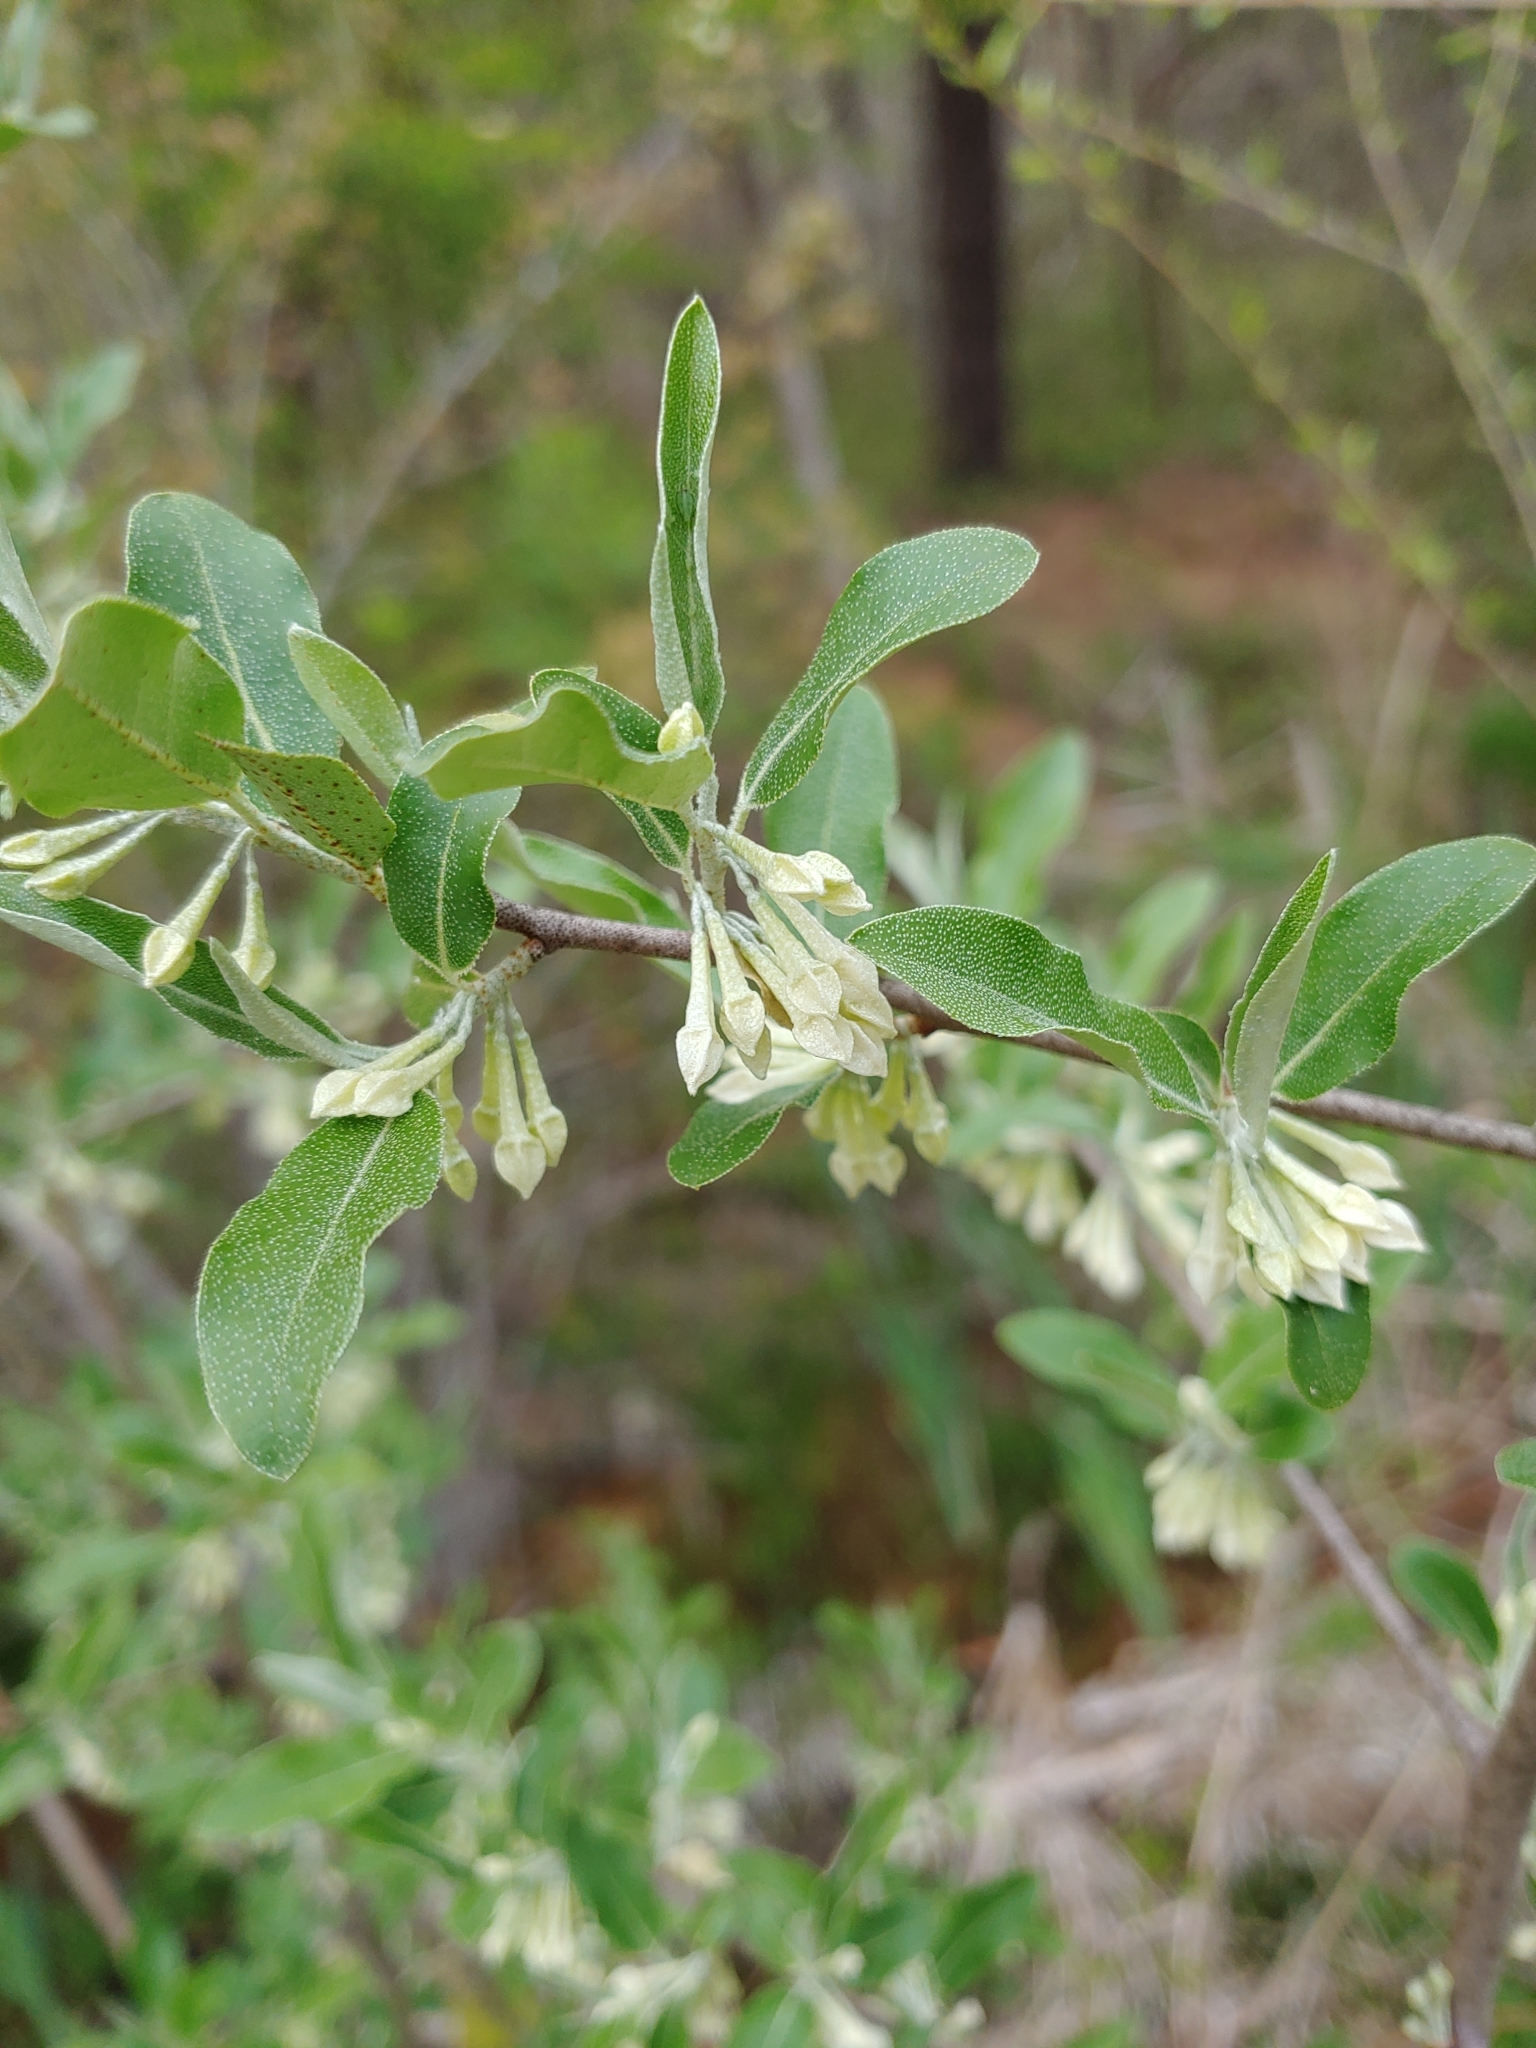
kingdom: Plantae
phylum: Tracheophyta
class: Magnoliopsida
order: Rosales
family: Elaeagnaceae
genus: Elaeagnus
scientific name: Elaeagnus umbellata
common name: Autumn olive
